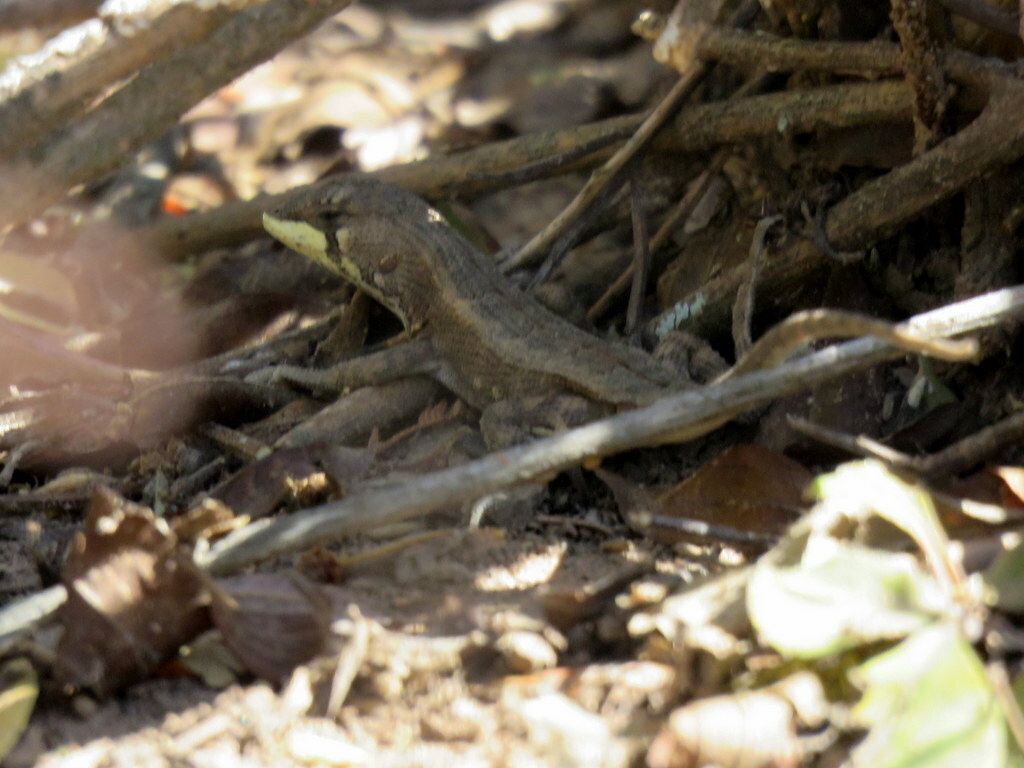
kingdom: Animalia
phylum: Chordata
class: Squamata
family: Tropiduridae
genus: Stenocercus
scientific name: Stenocercus doellojuradoi
